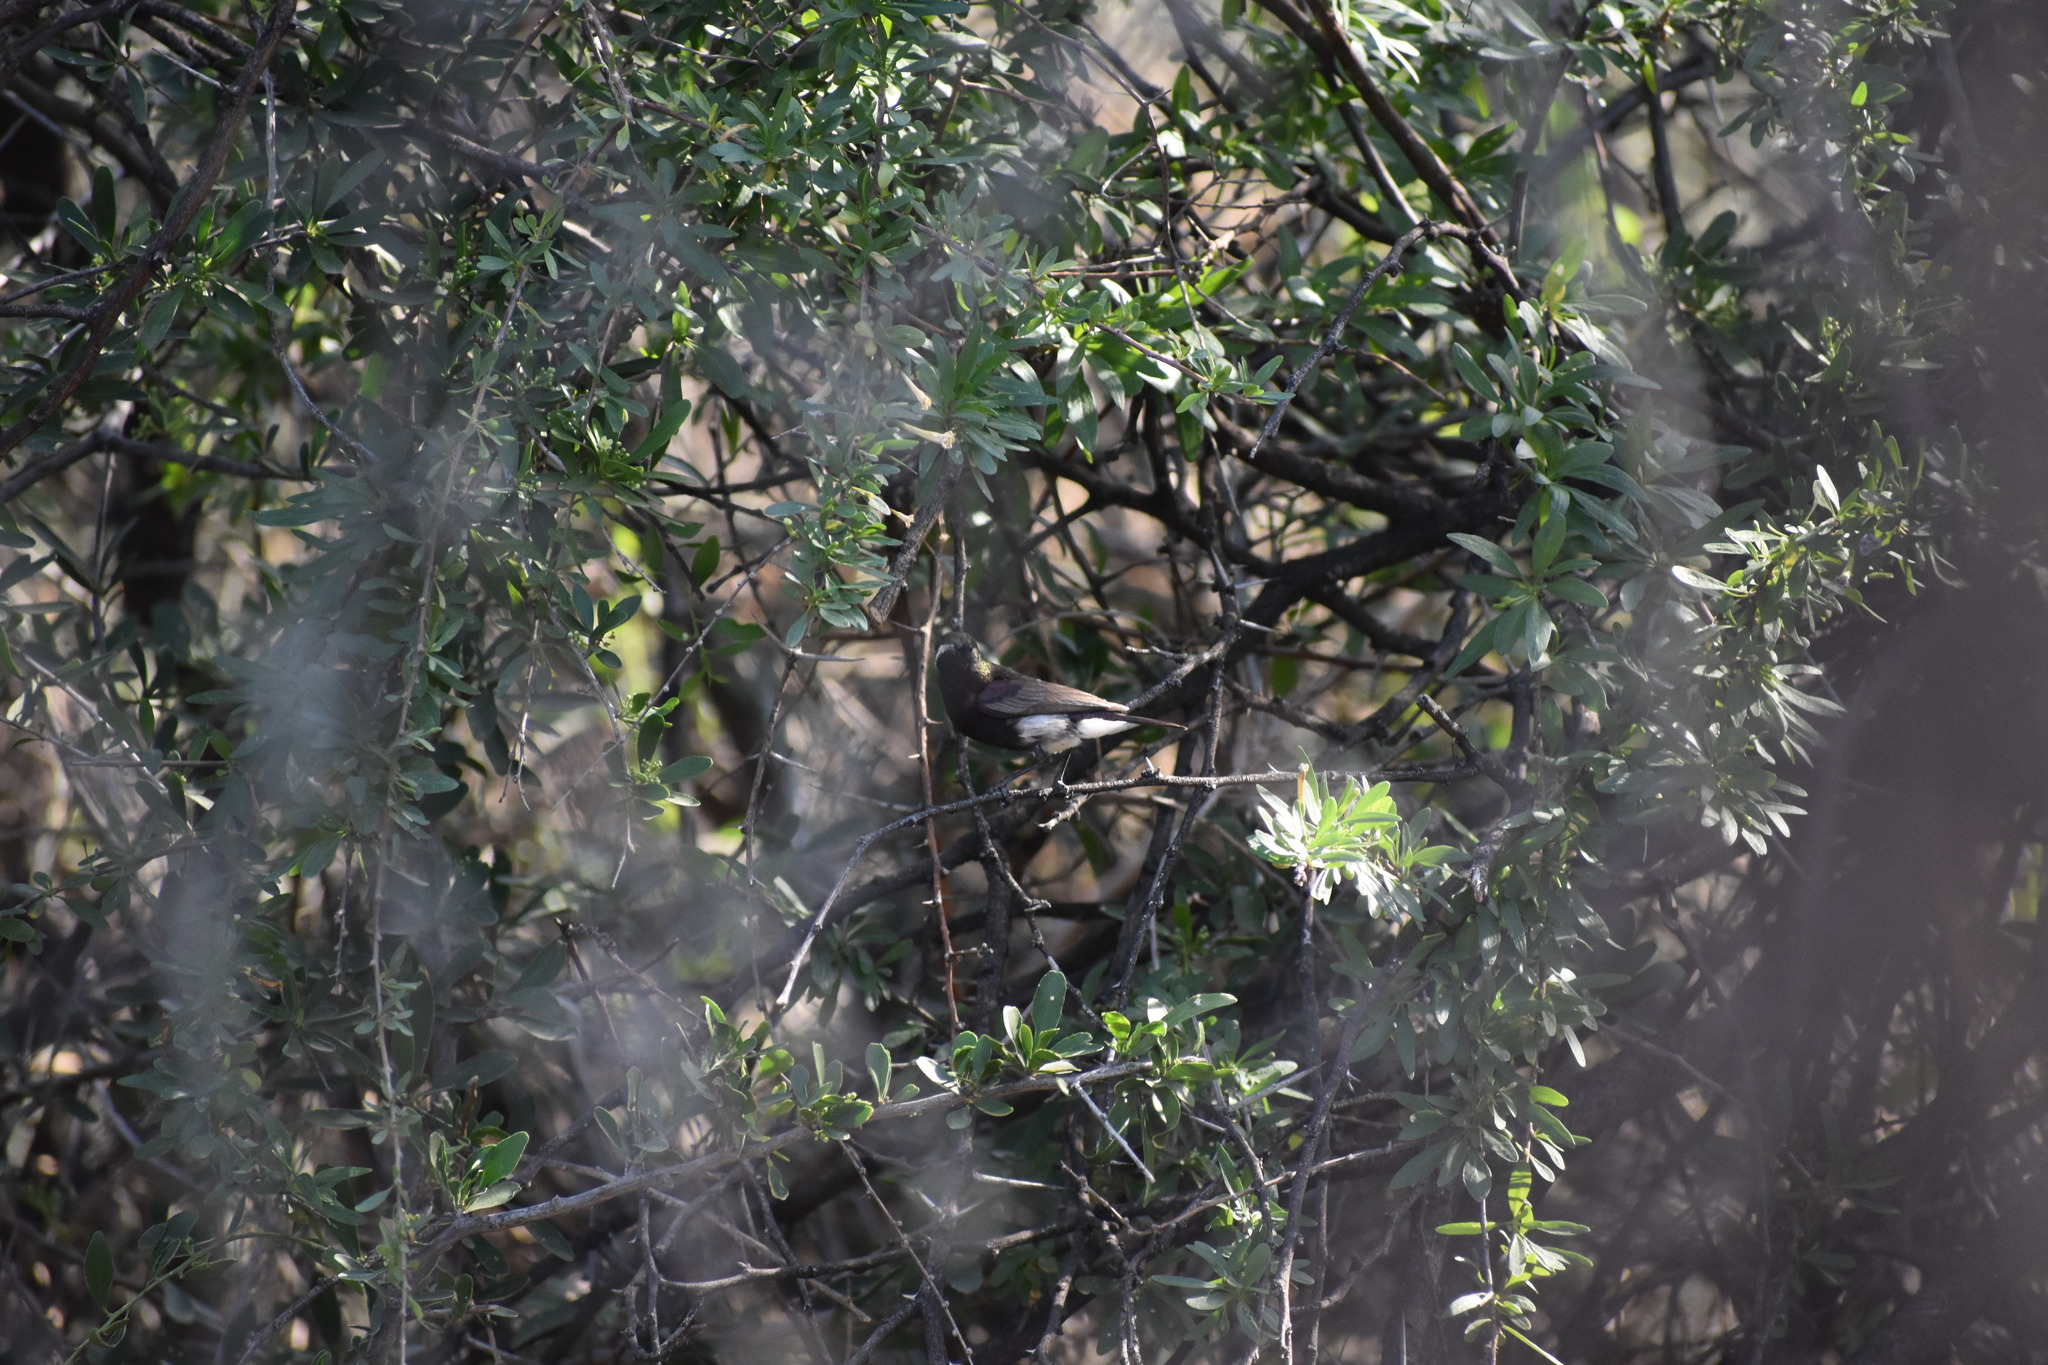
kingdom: Animalia
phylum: Chordata
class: Aves
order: Passeriformes
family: Nectariniidae
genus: Cinnyris
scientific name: Cinnyris fuscus
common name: Dusky sunbird
